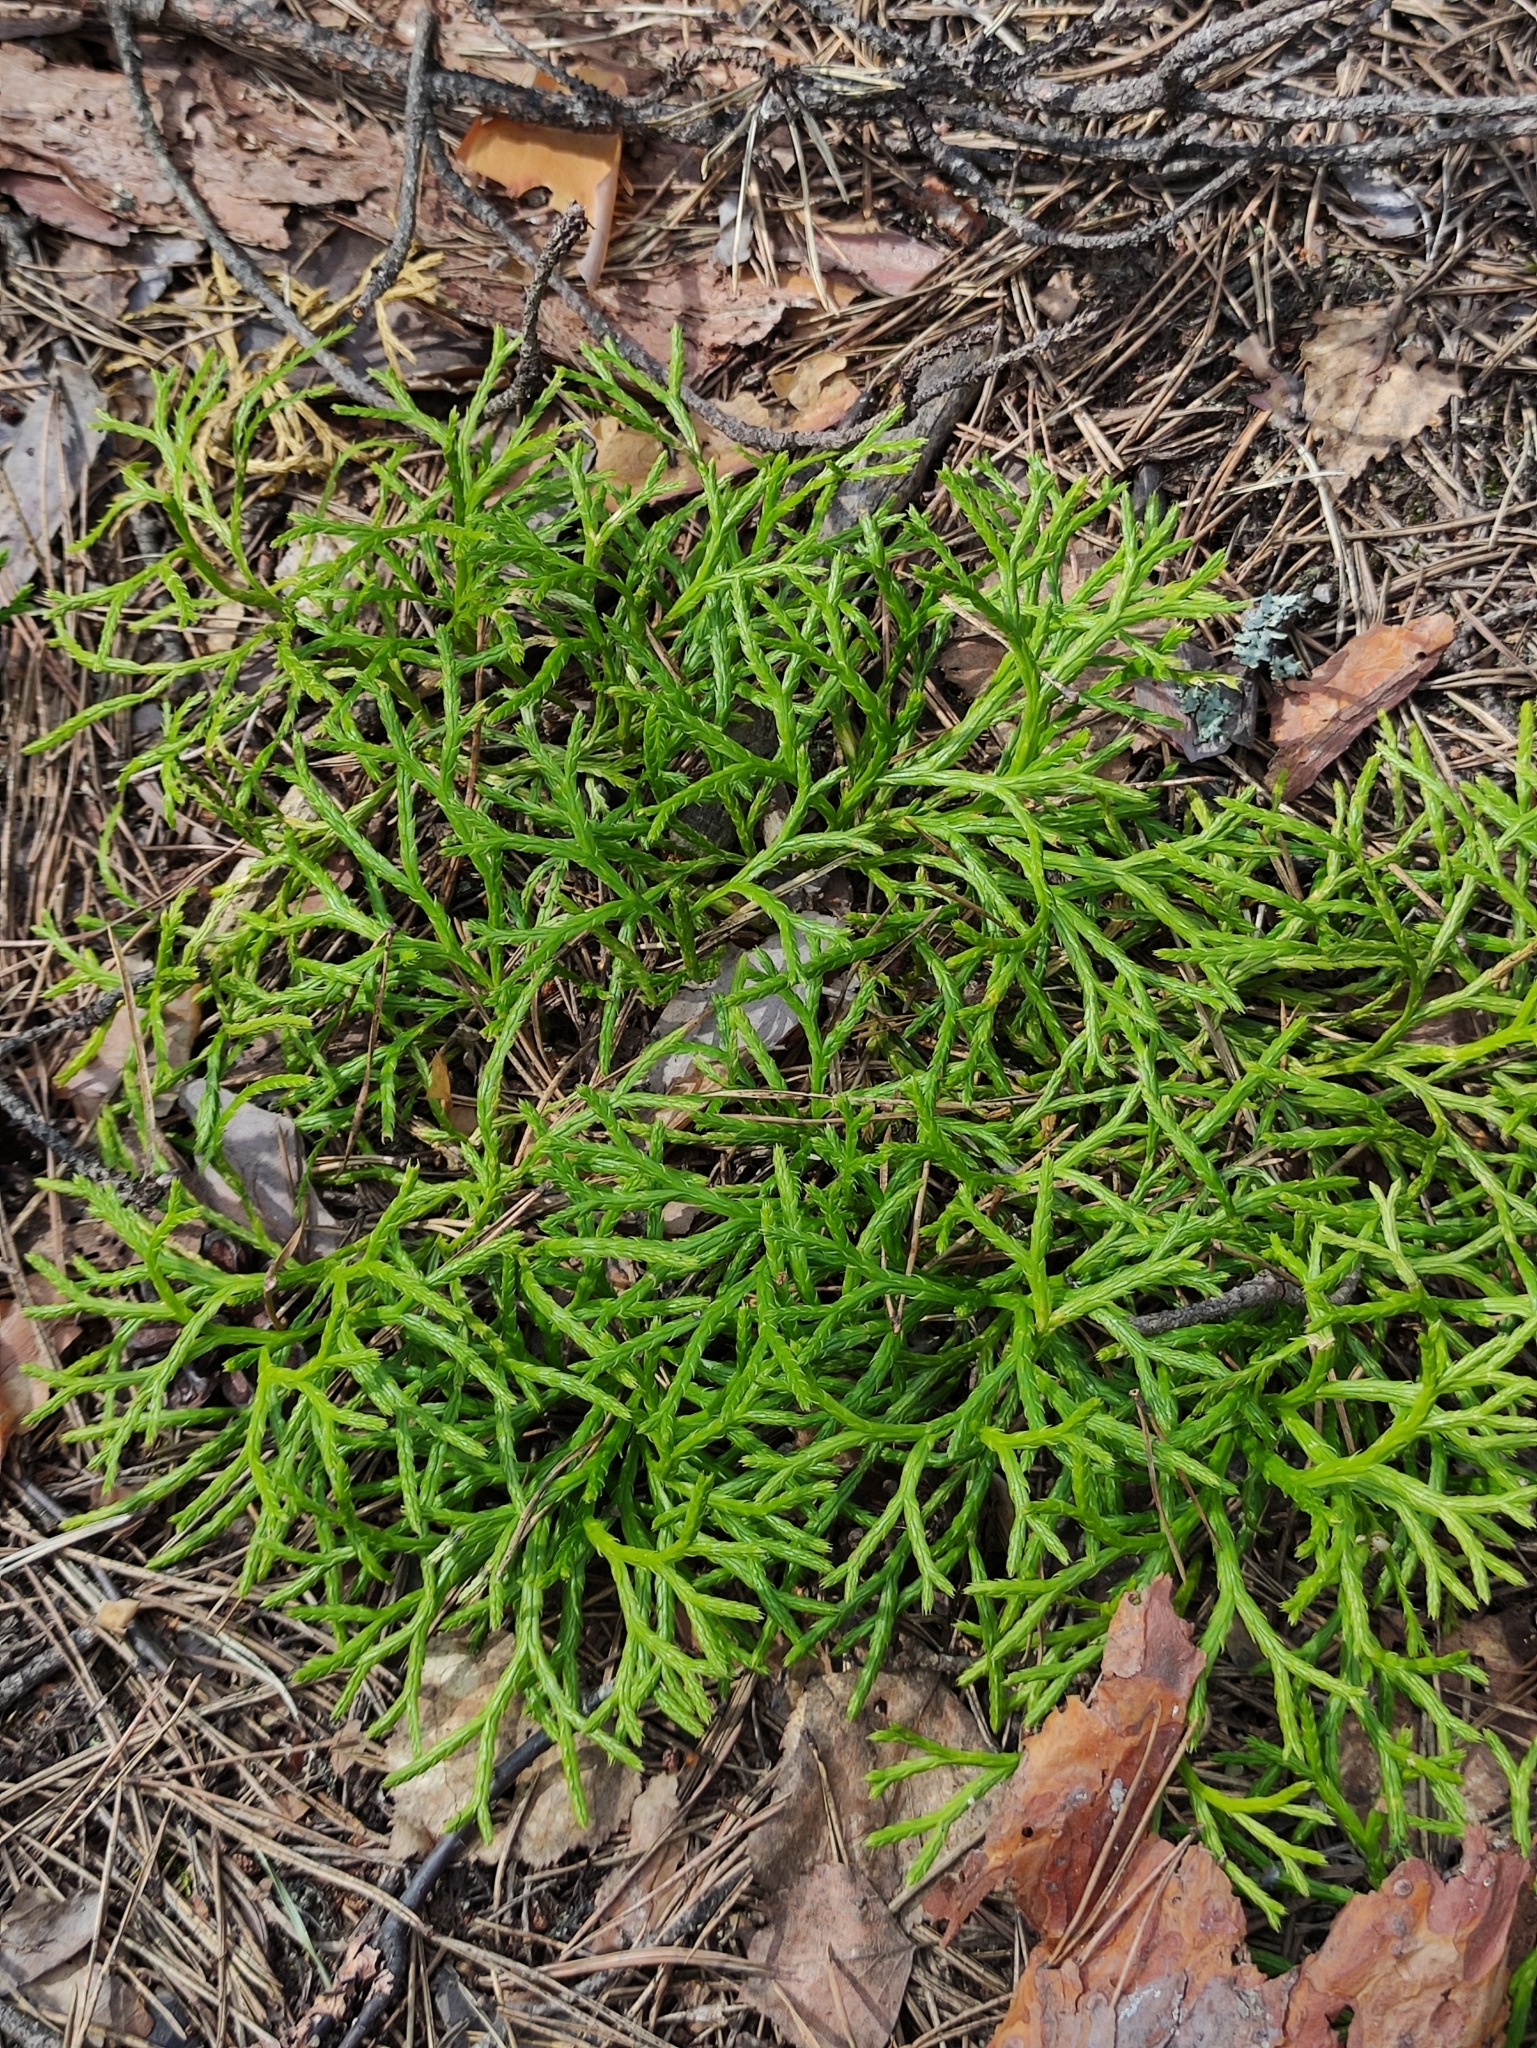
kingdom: Plantae
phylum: Tracheophyta
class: Lycopodiopsida
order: Lycopodiales
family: Lycopodiaceae
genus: Diphasiastrum
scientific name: Diphasiastrum complanatum
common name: Northern running-pine
